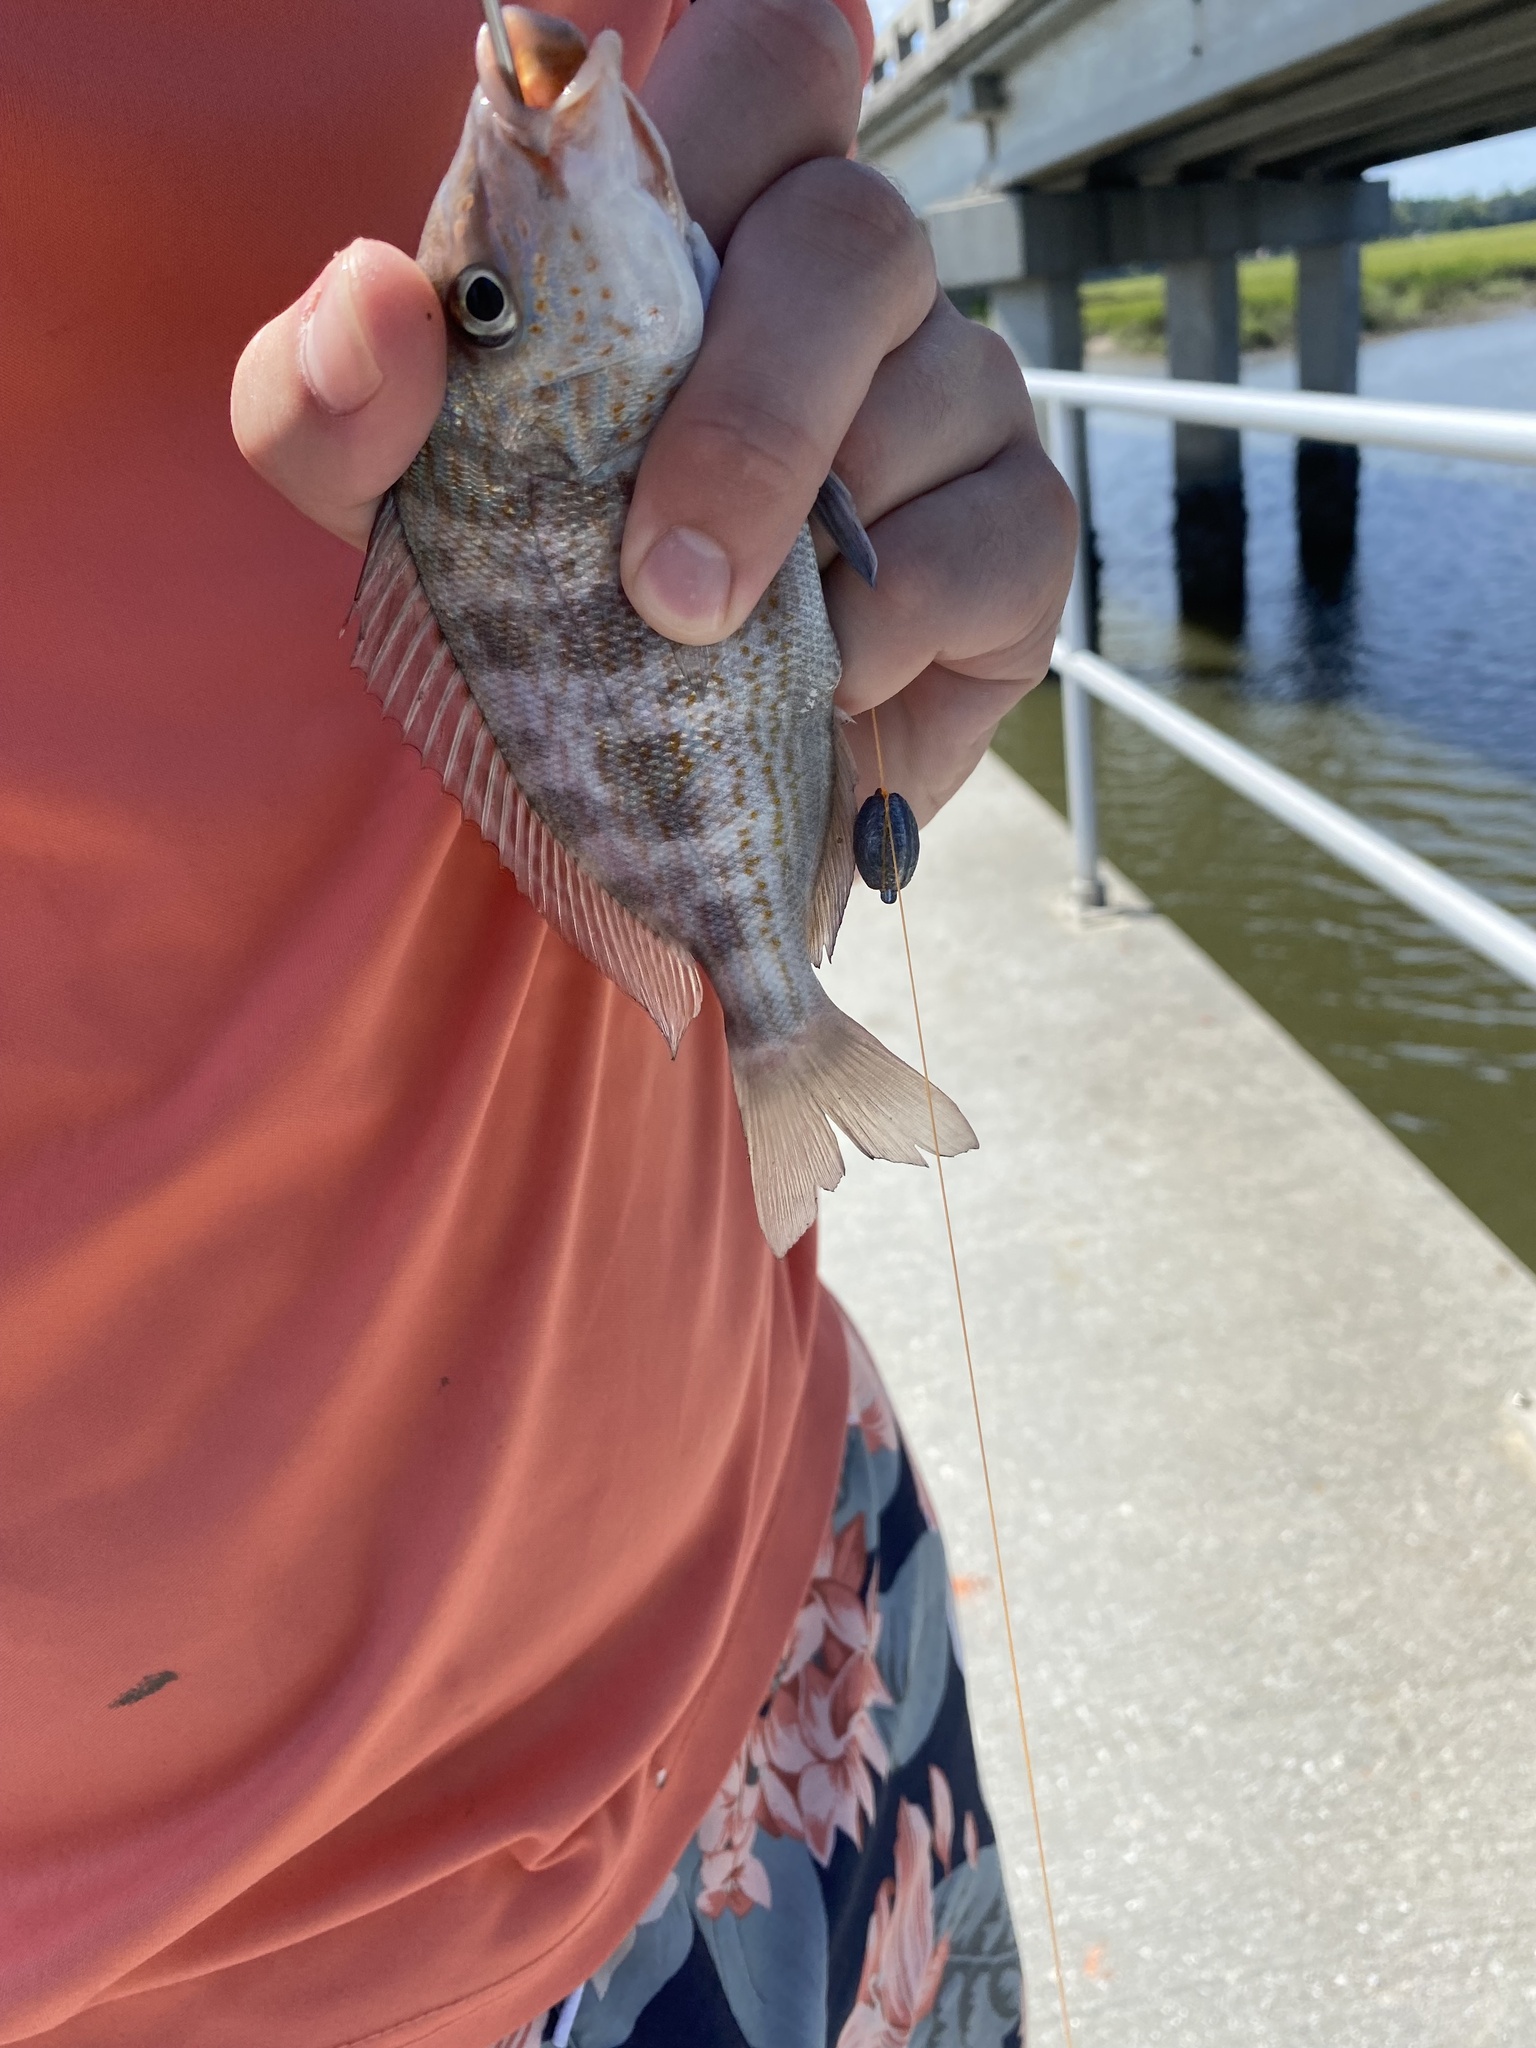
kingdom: Animalia
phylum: Chordata
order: Perciformes
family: Haemulidae
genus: Orthopristis
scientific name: Orthopristis chrysoptera
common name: Pigfish
